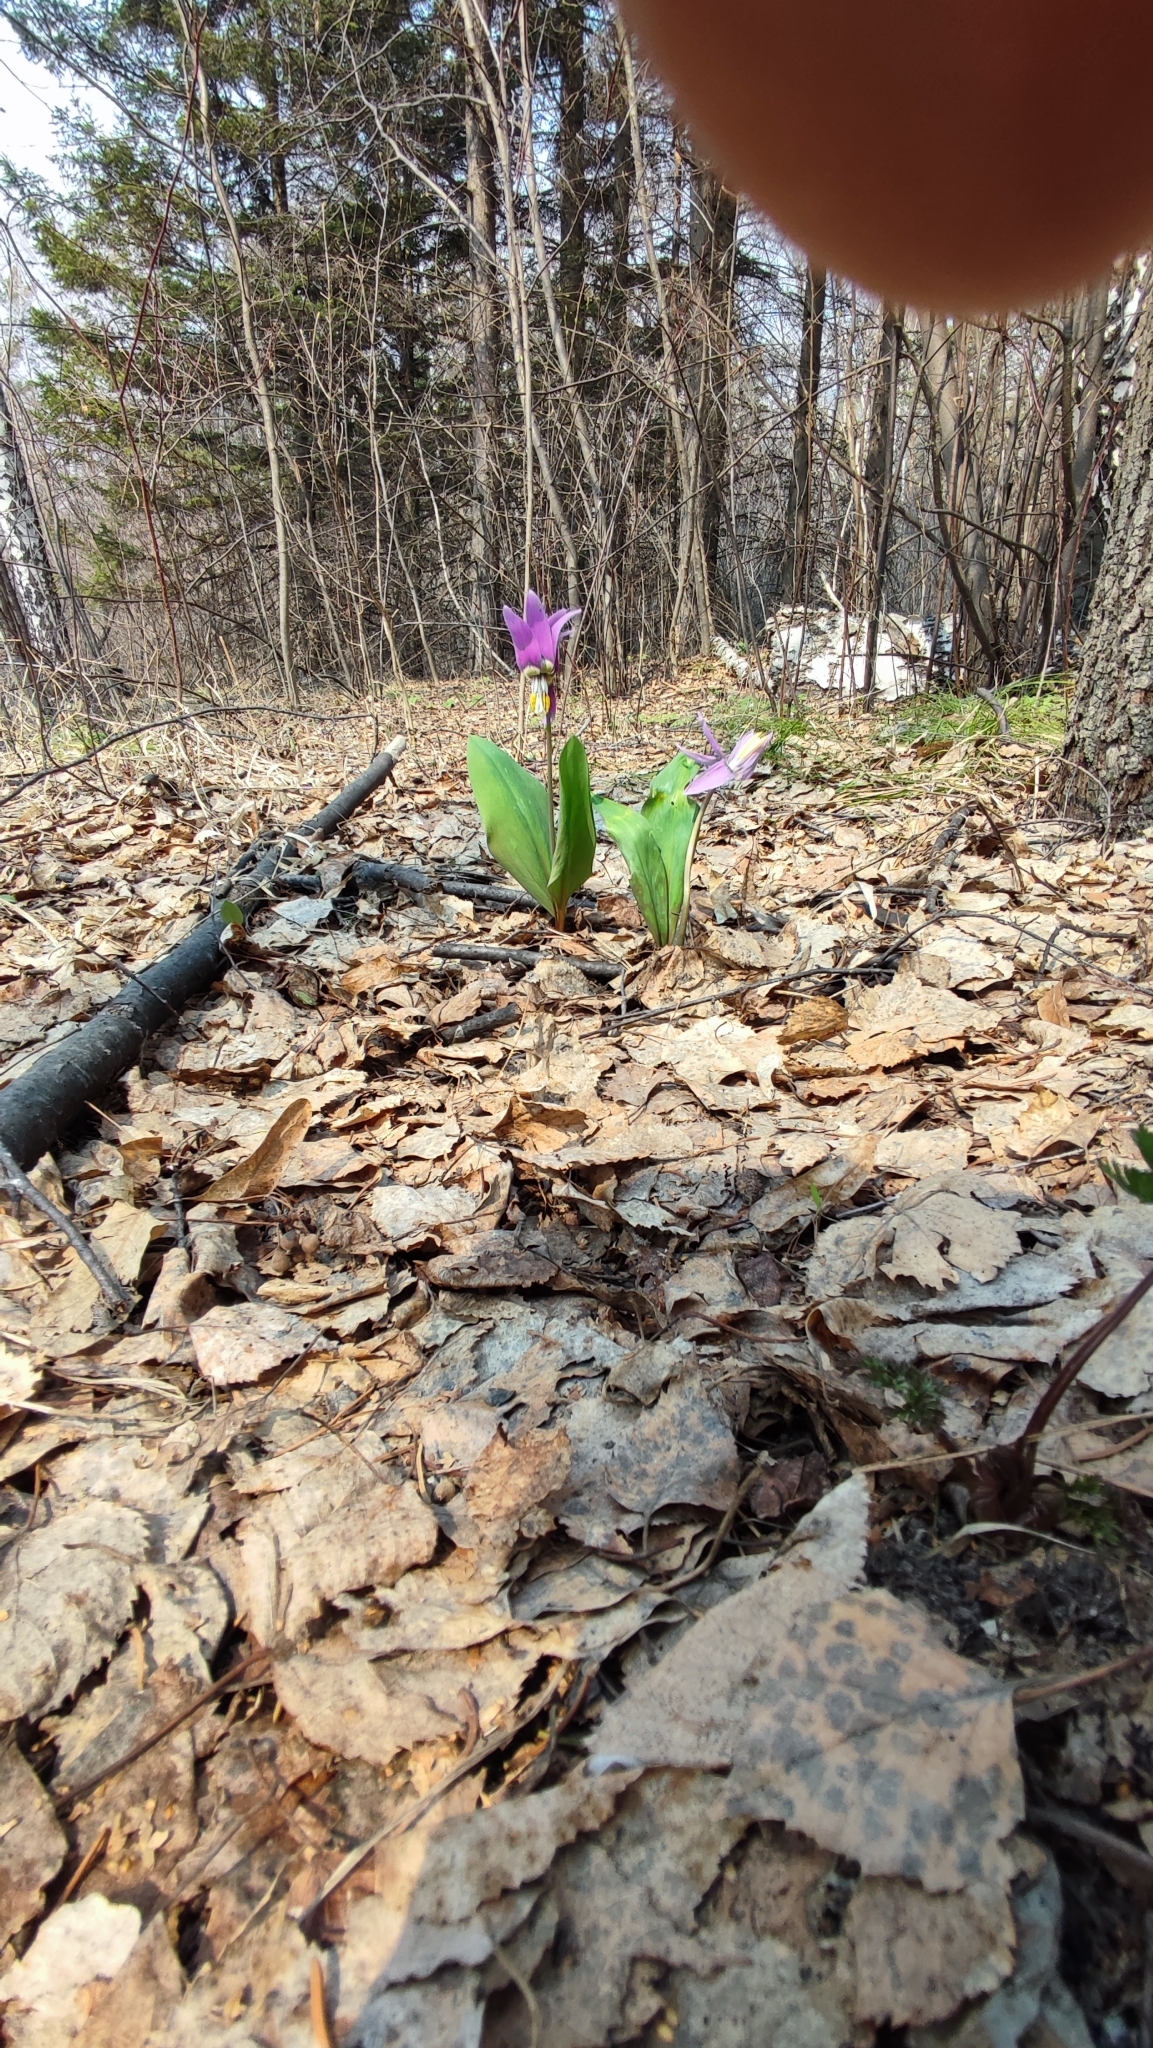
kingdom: Plantae
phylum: Tracheophyta
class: Liliopsida
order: Liliales
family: Liliaceae
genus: Erythronium
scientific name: Erythronium sibiricum
